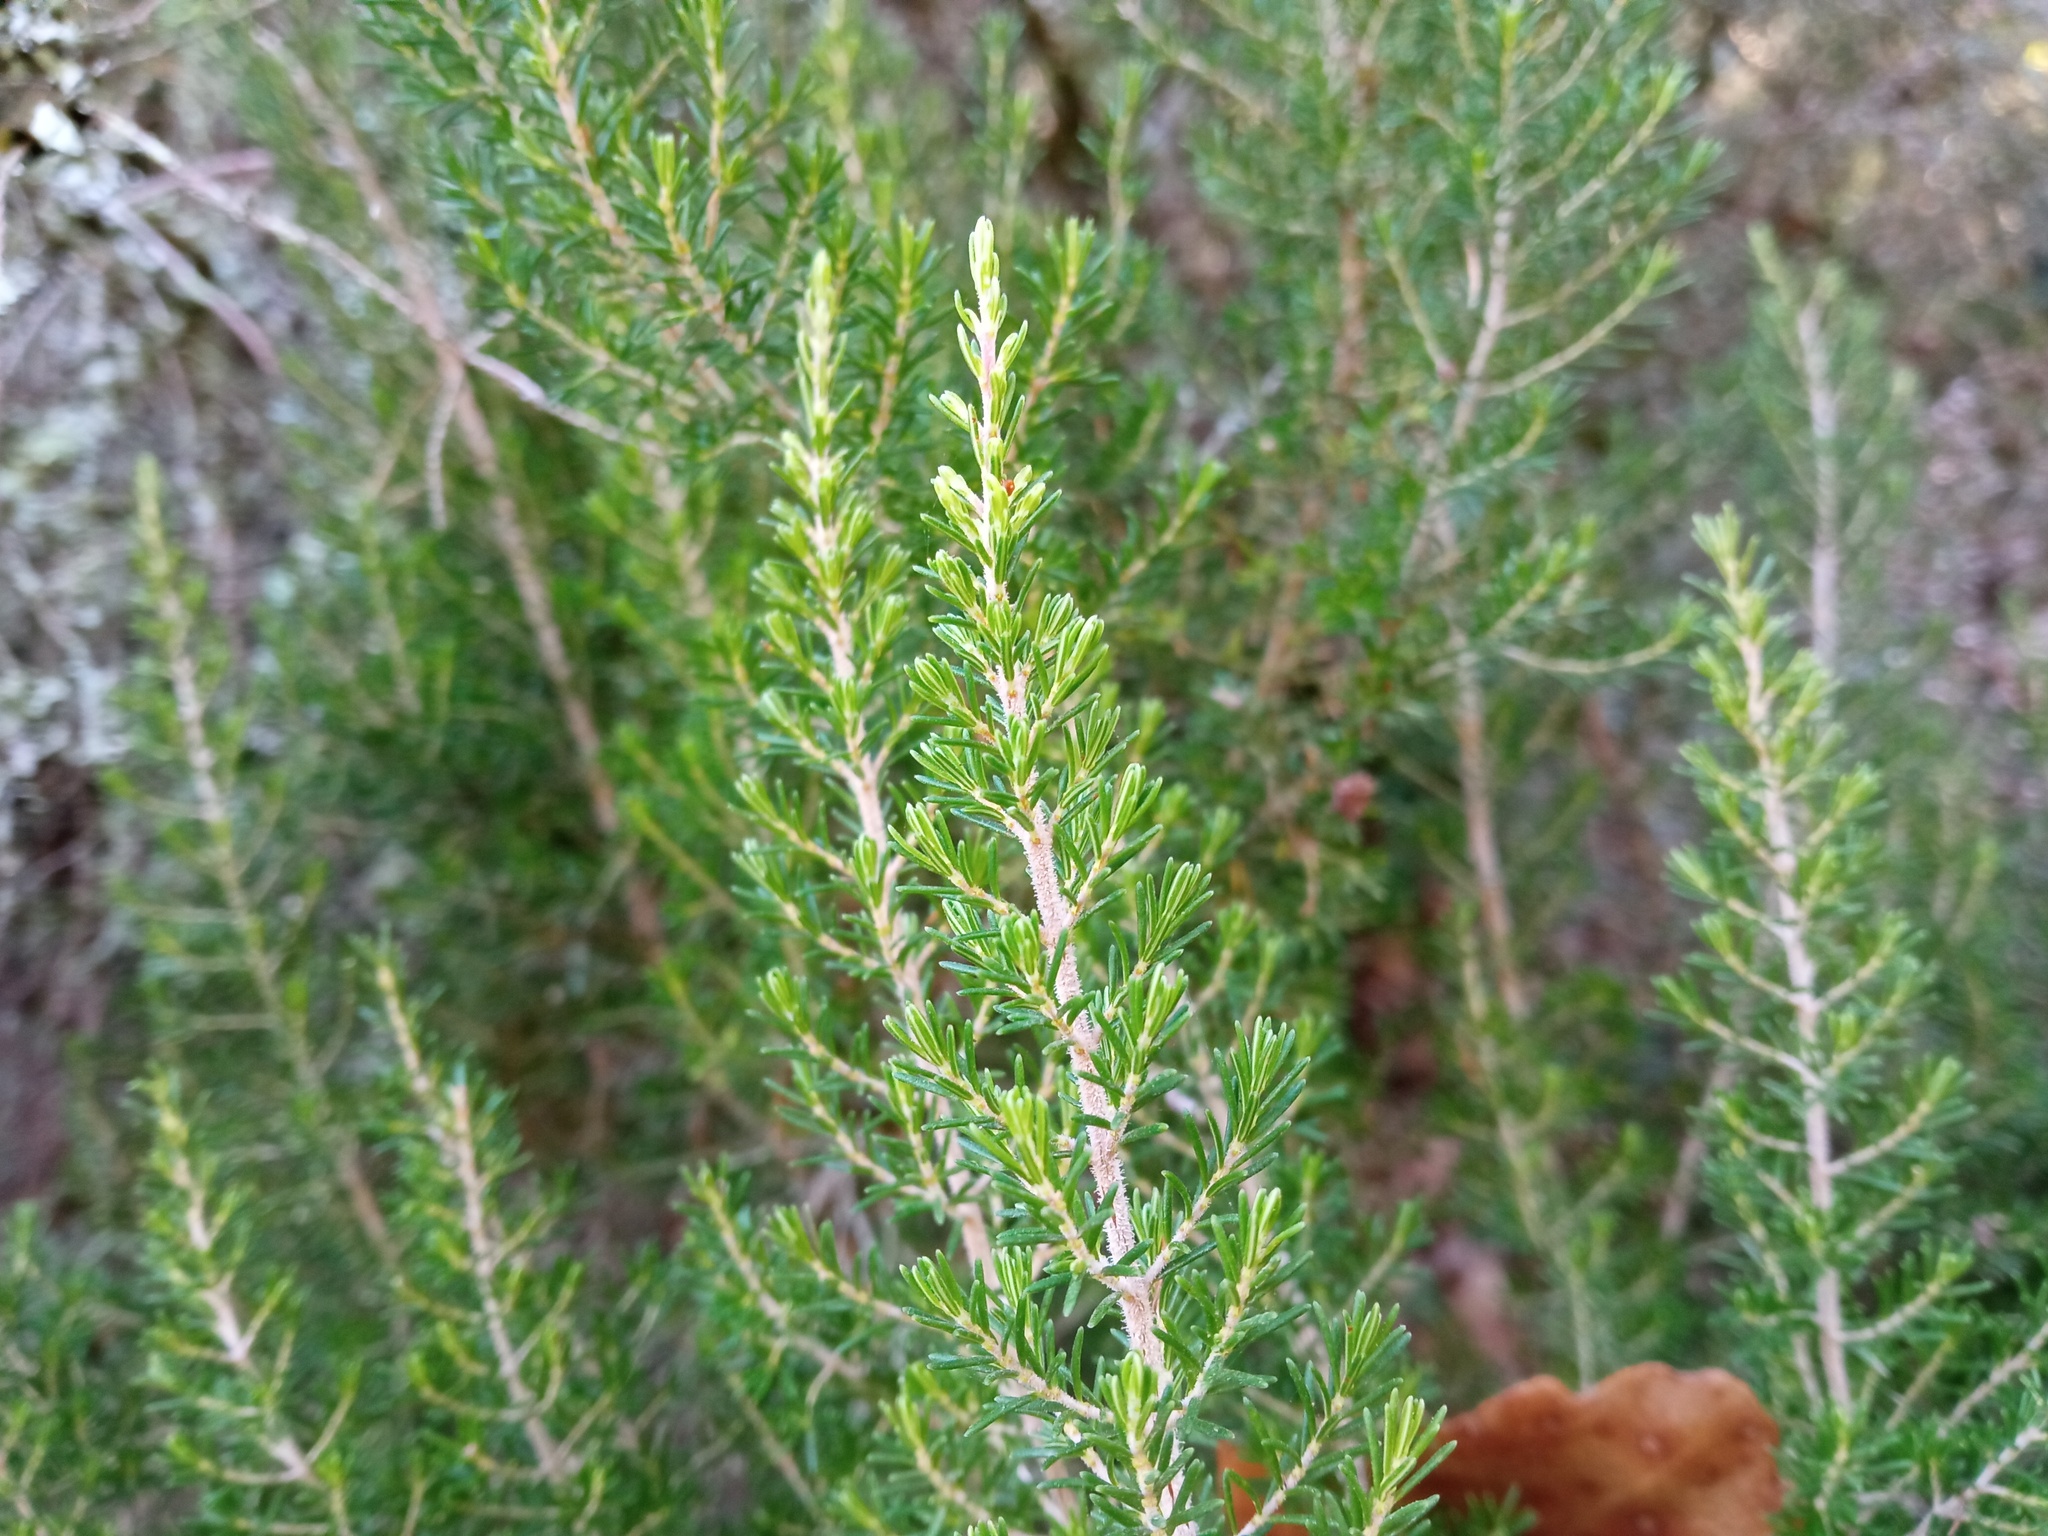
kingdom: Plantae
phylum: Tracheophyta
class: Magnoliopsida
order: Ericales
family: Ericaceae
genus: Erica
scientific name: Erica arborea
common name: Tree heath
